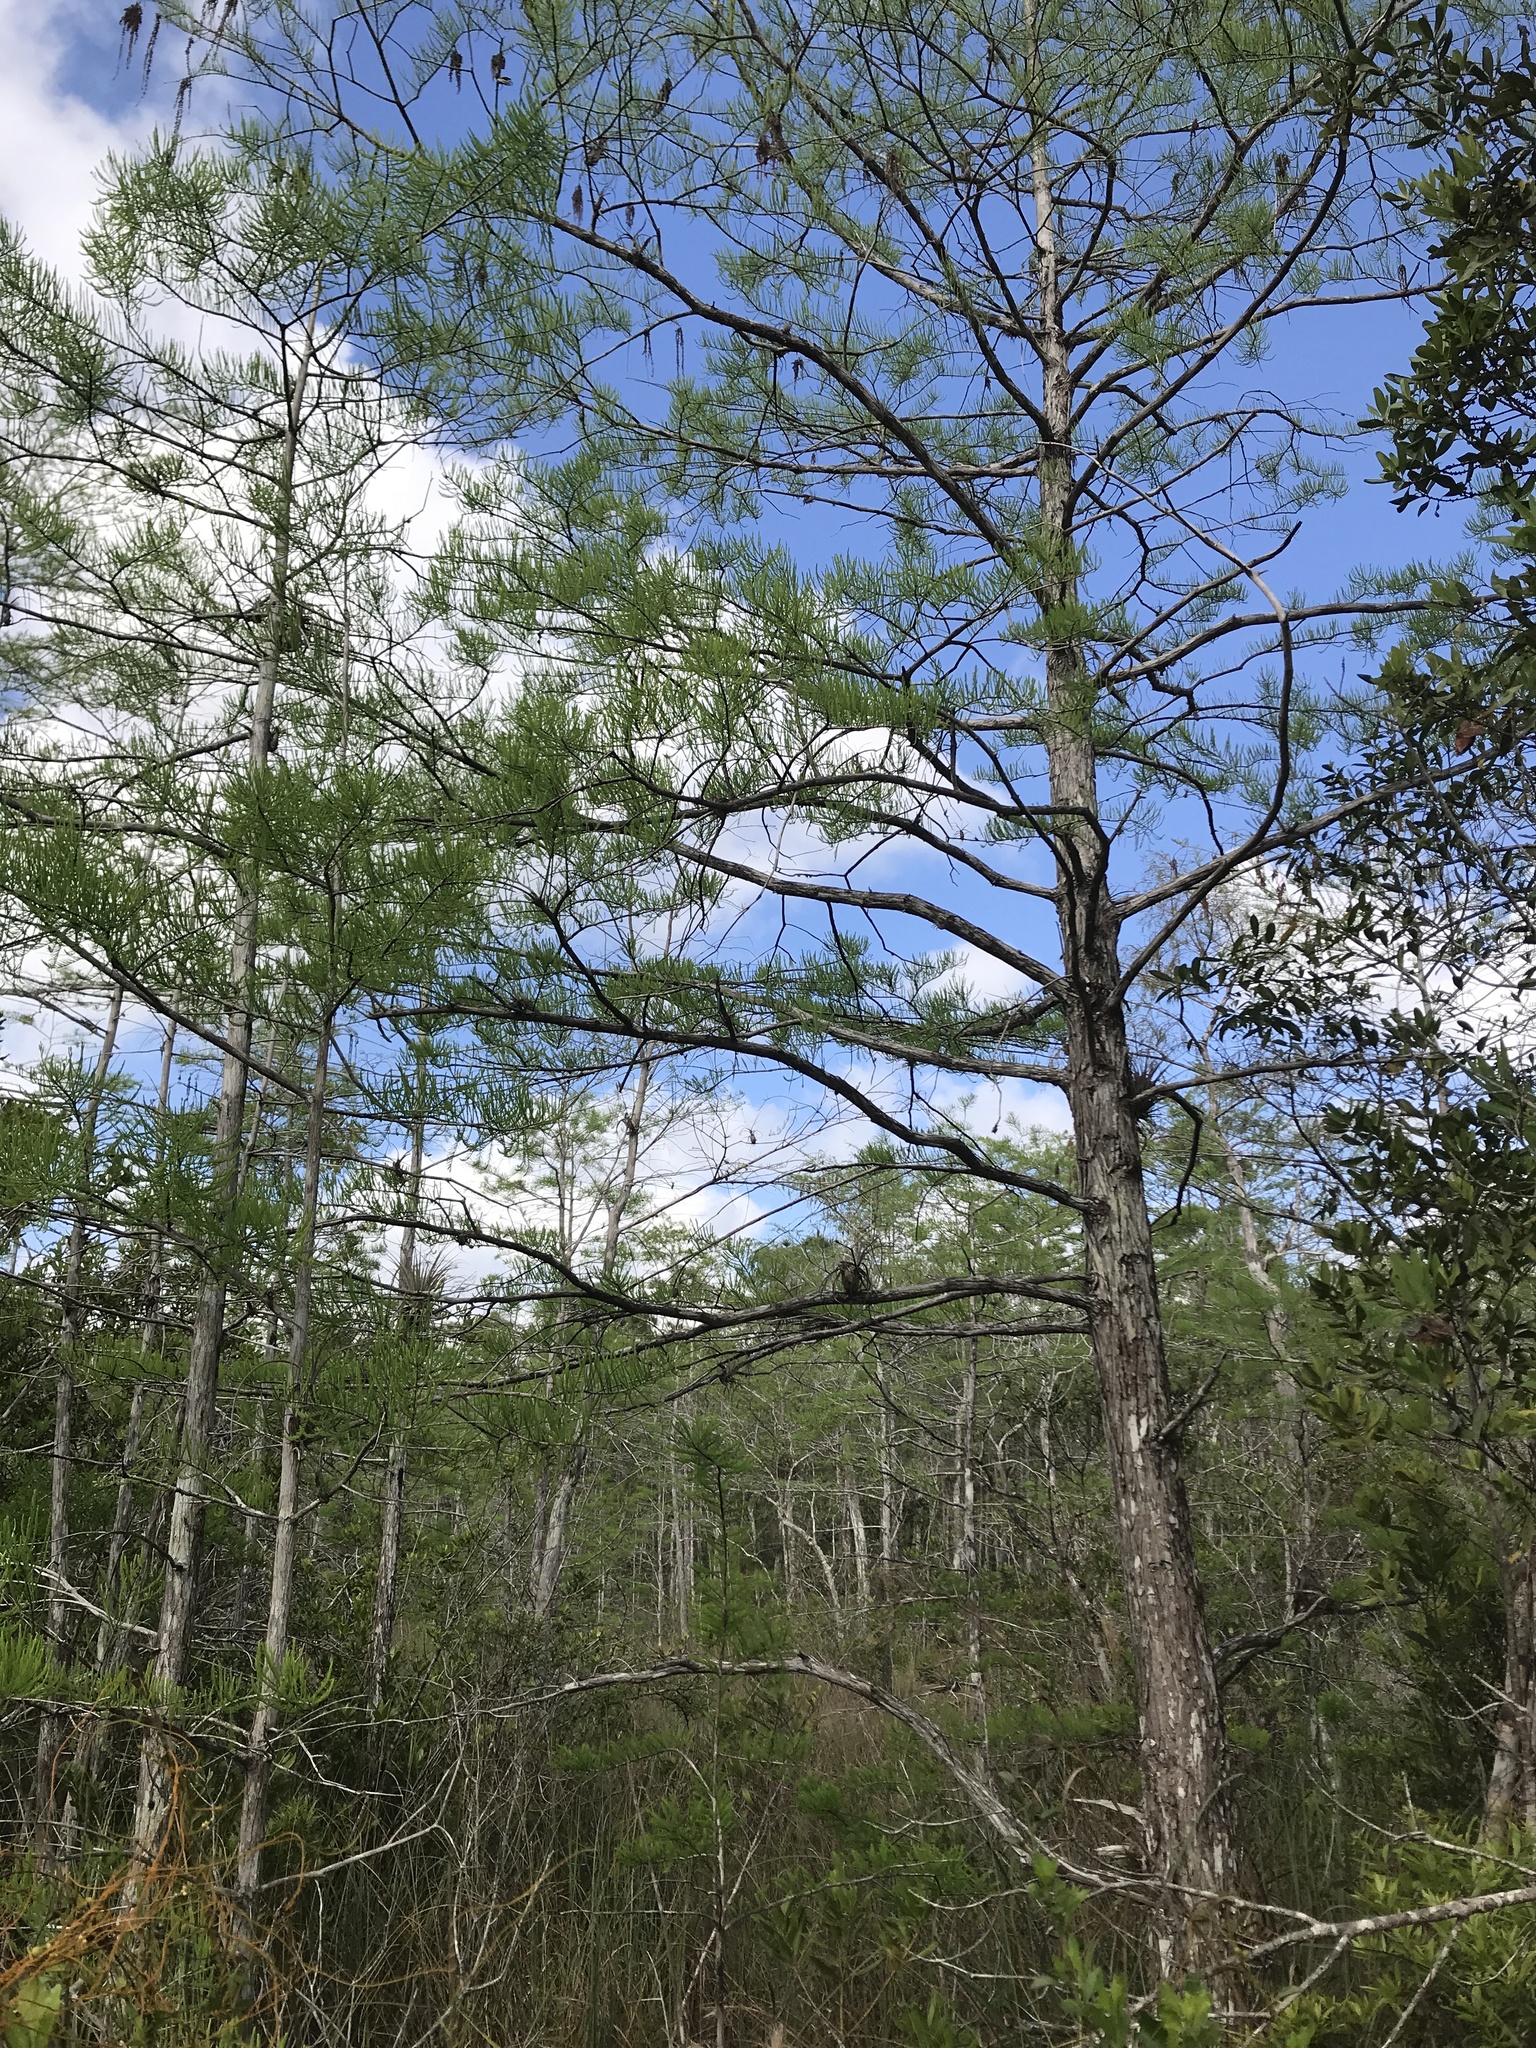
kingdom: Plantae
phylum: Tracheophyta
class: Pinopsida
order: Pinales
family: Cupressaceae
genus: Taxodium
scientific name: Taxodium distichum
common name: Bald cypress
